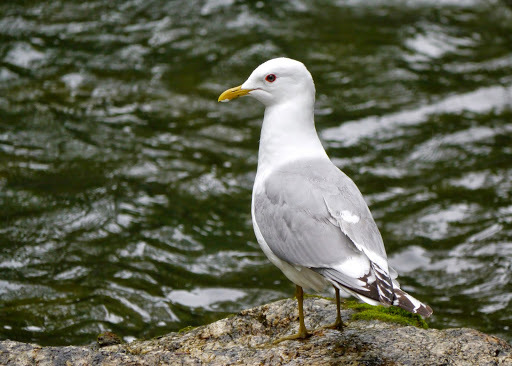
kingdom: Animalia
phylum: Chordata
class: Aves
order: Charadriiformes
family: Laridae
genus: Larus
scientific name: Larus brachyrhynchus
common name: Short-billed gull
